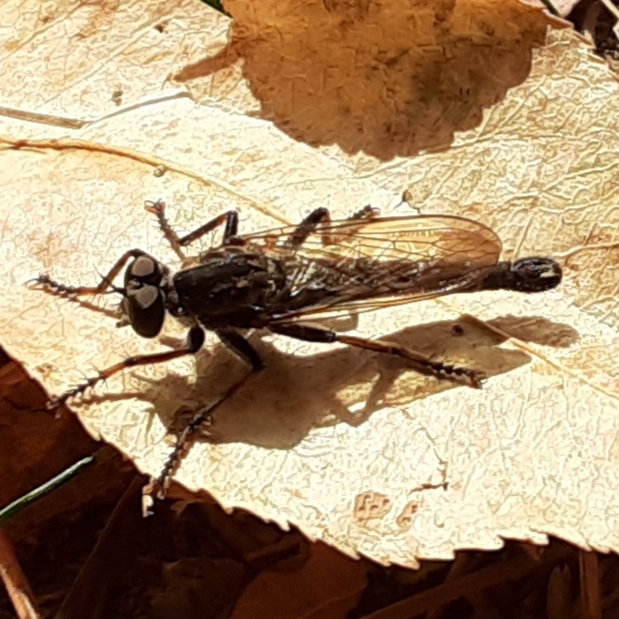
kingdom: Animalia
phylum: Arthropoda
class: Insecta
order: Diptera
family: Asilidae
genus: Machimus
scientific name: Machimus sadyates
